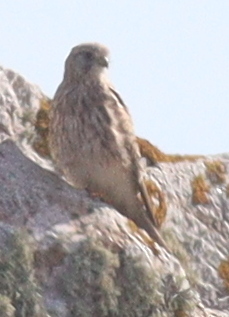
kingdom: Animalia
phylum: Chordata
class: Aves
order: Falconiformes
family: Falconidae
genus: Falco
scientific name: Falco tinnunculus
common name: Common kestrel
